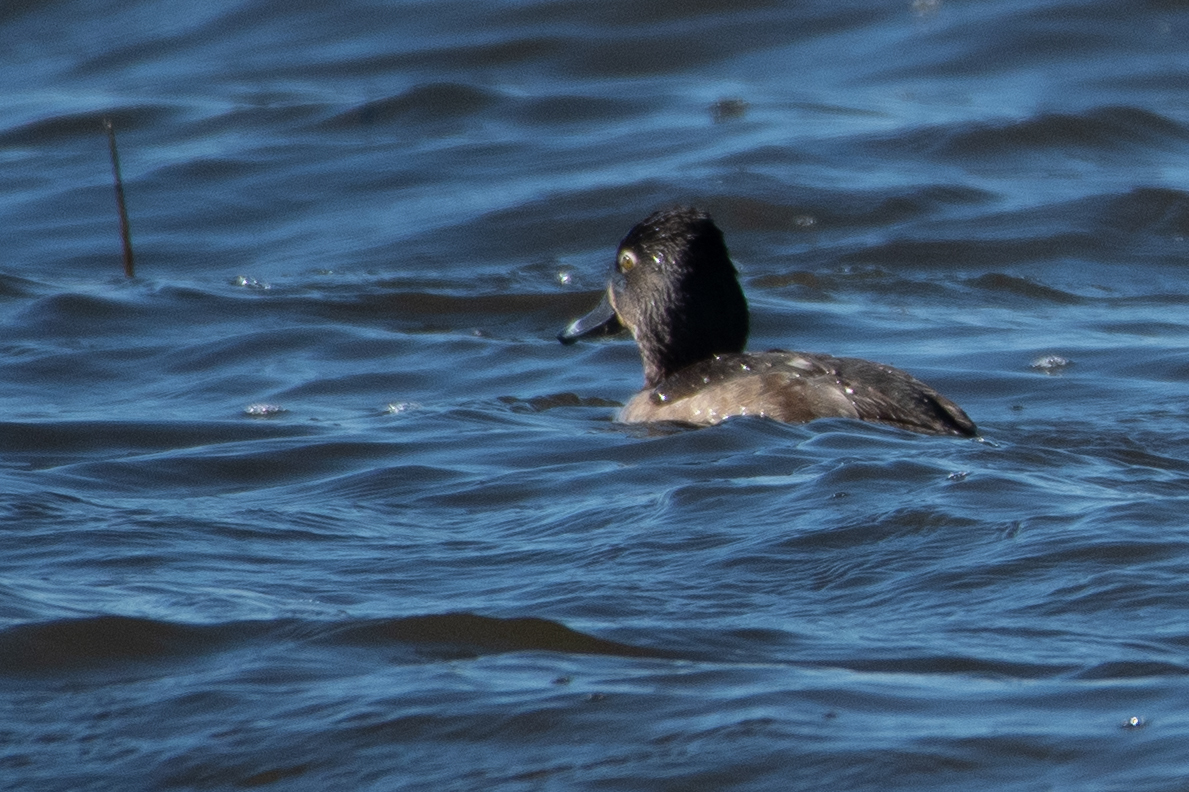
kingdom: Animalia
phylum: Chordata
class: Aves
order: Anseriformes
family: Anatidae
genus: Aythya
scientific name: Aythya collaris
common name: Ring-necked duck
